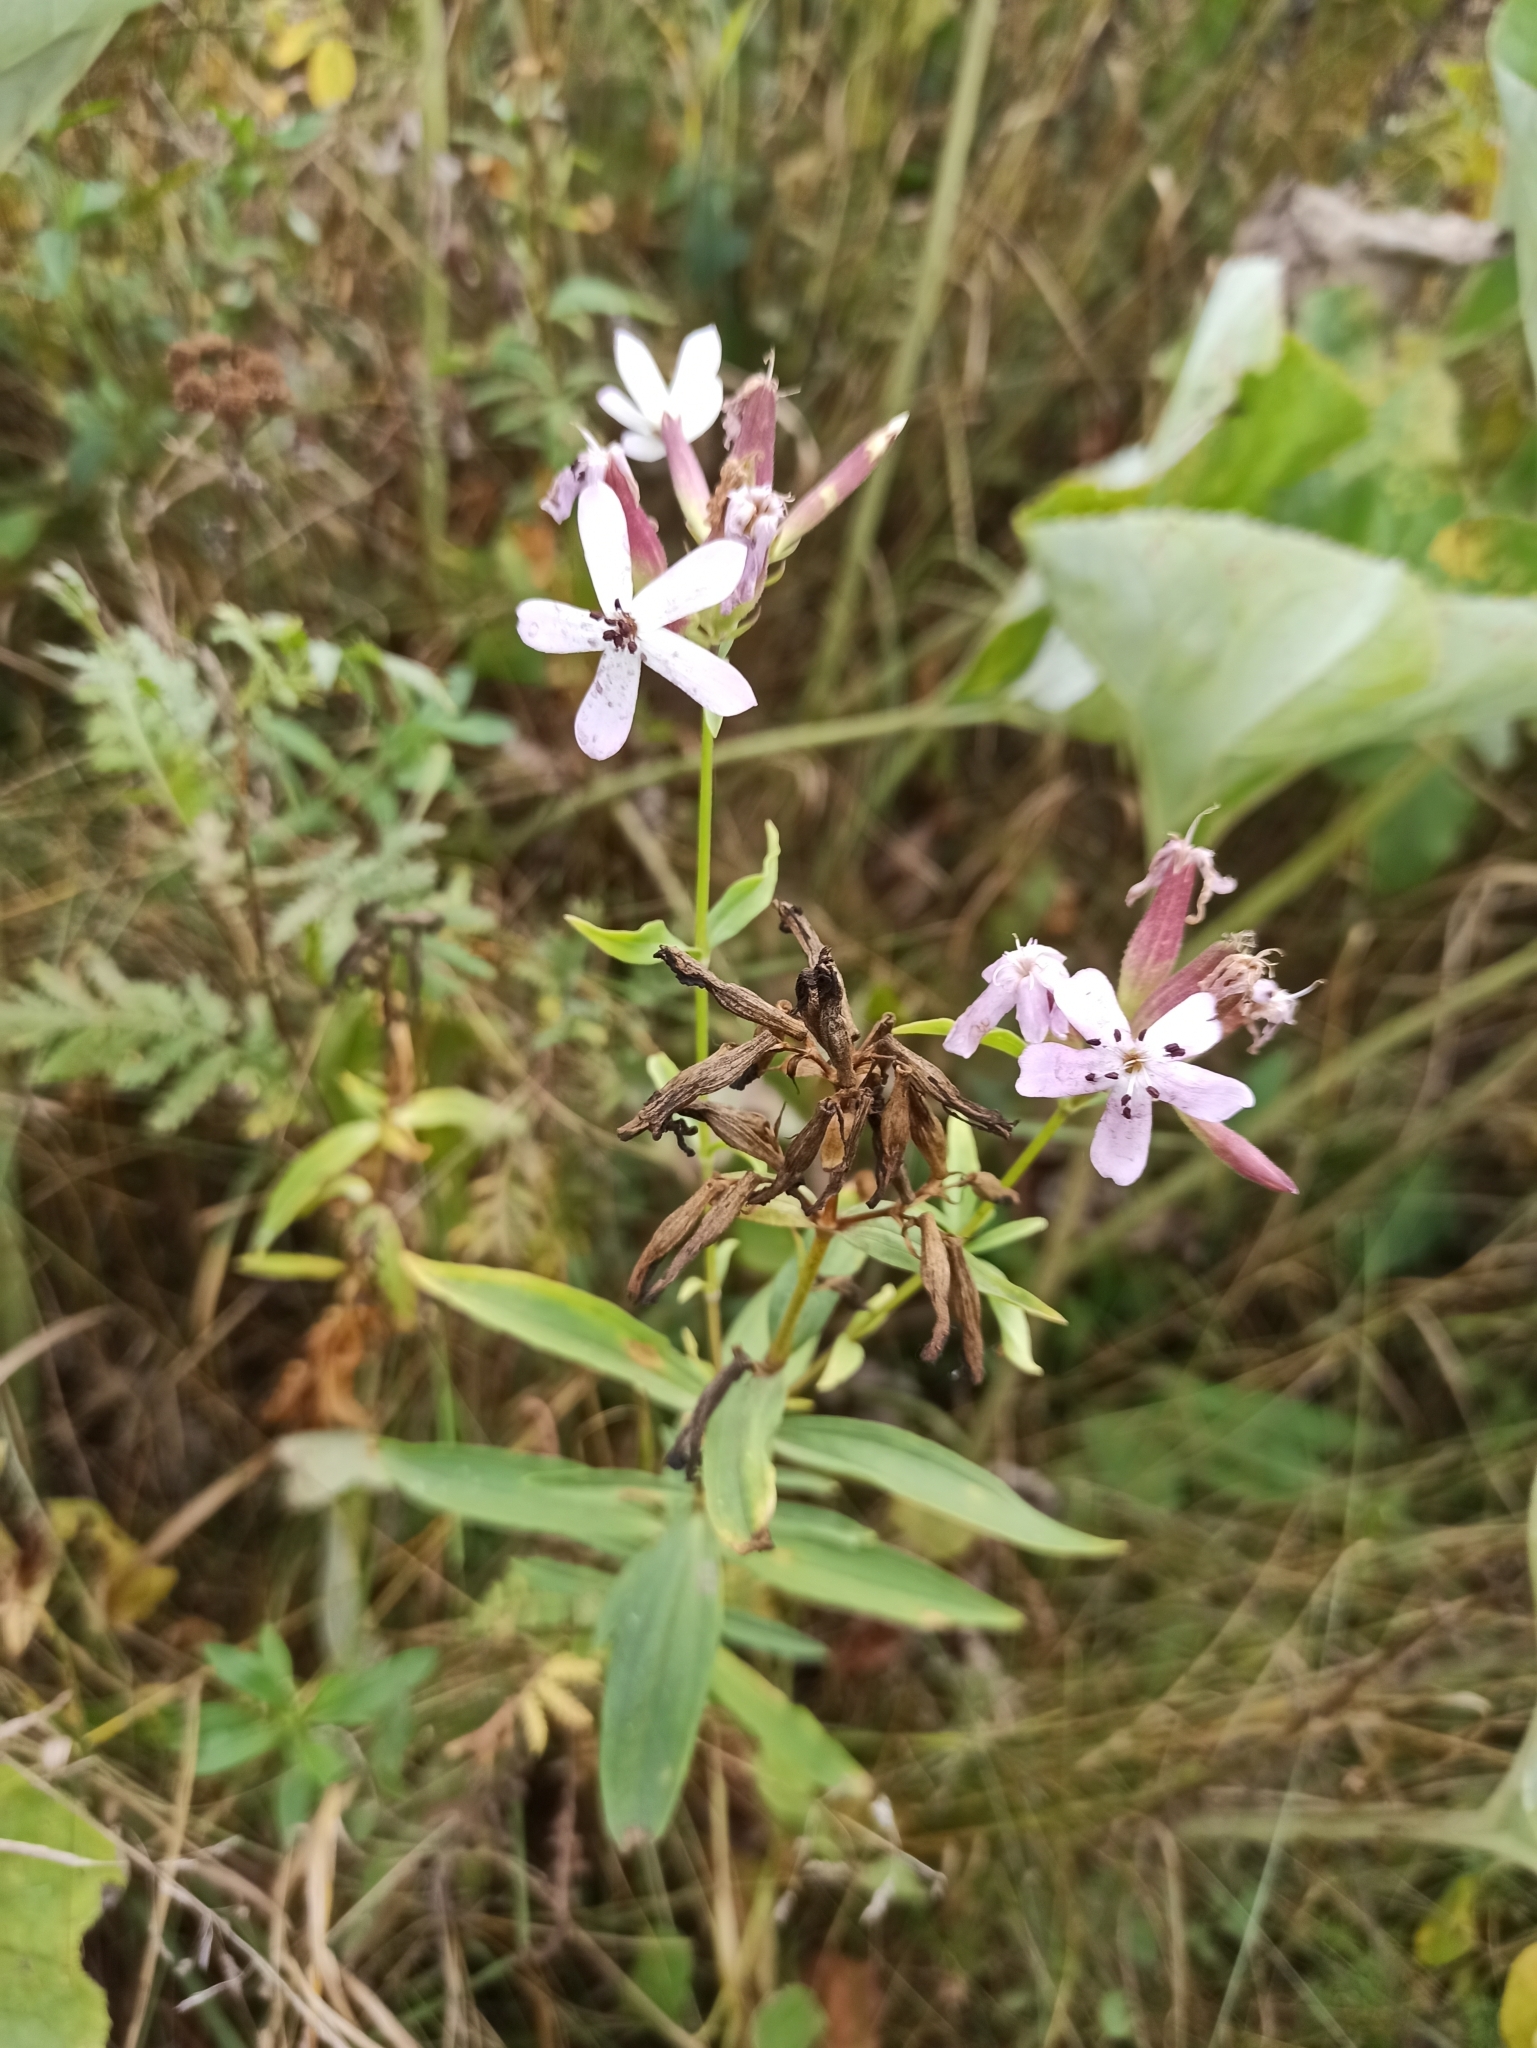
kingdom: Plantae
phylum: Tracheophyta
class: Magnoliopsida
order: Caryophyllales
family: Caryophyllaceae
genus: Saponaria
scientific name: Saponaria officinalis
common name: Soapwort
